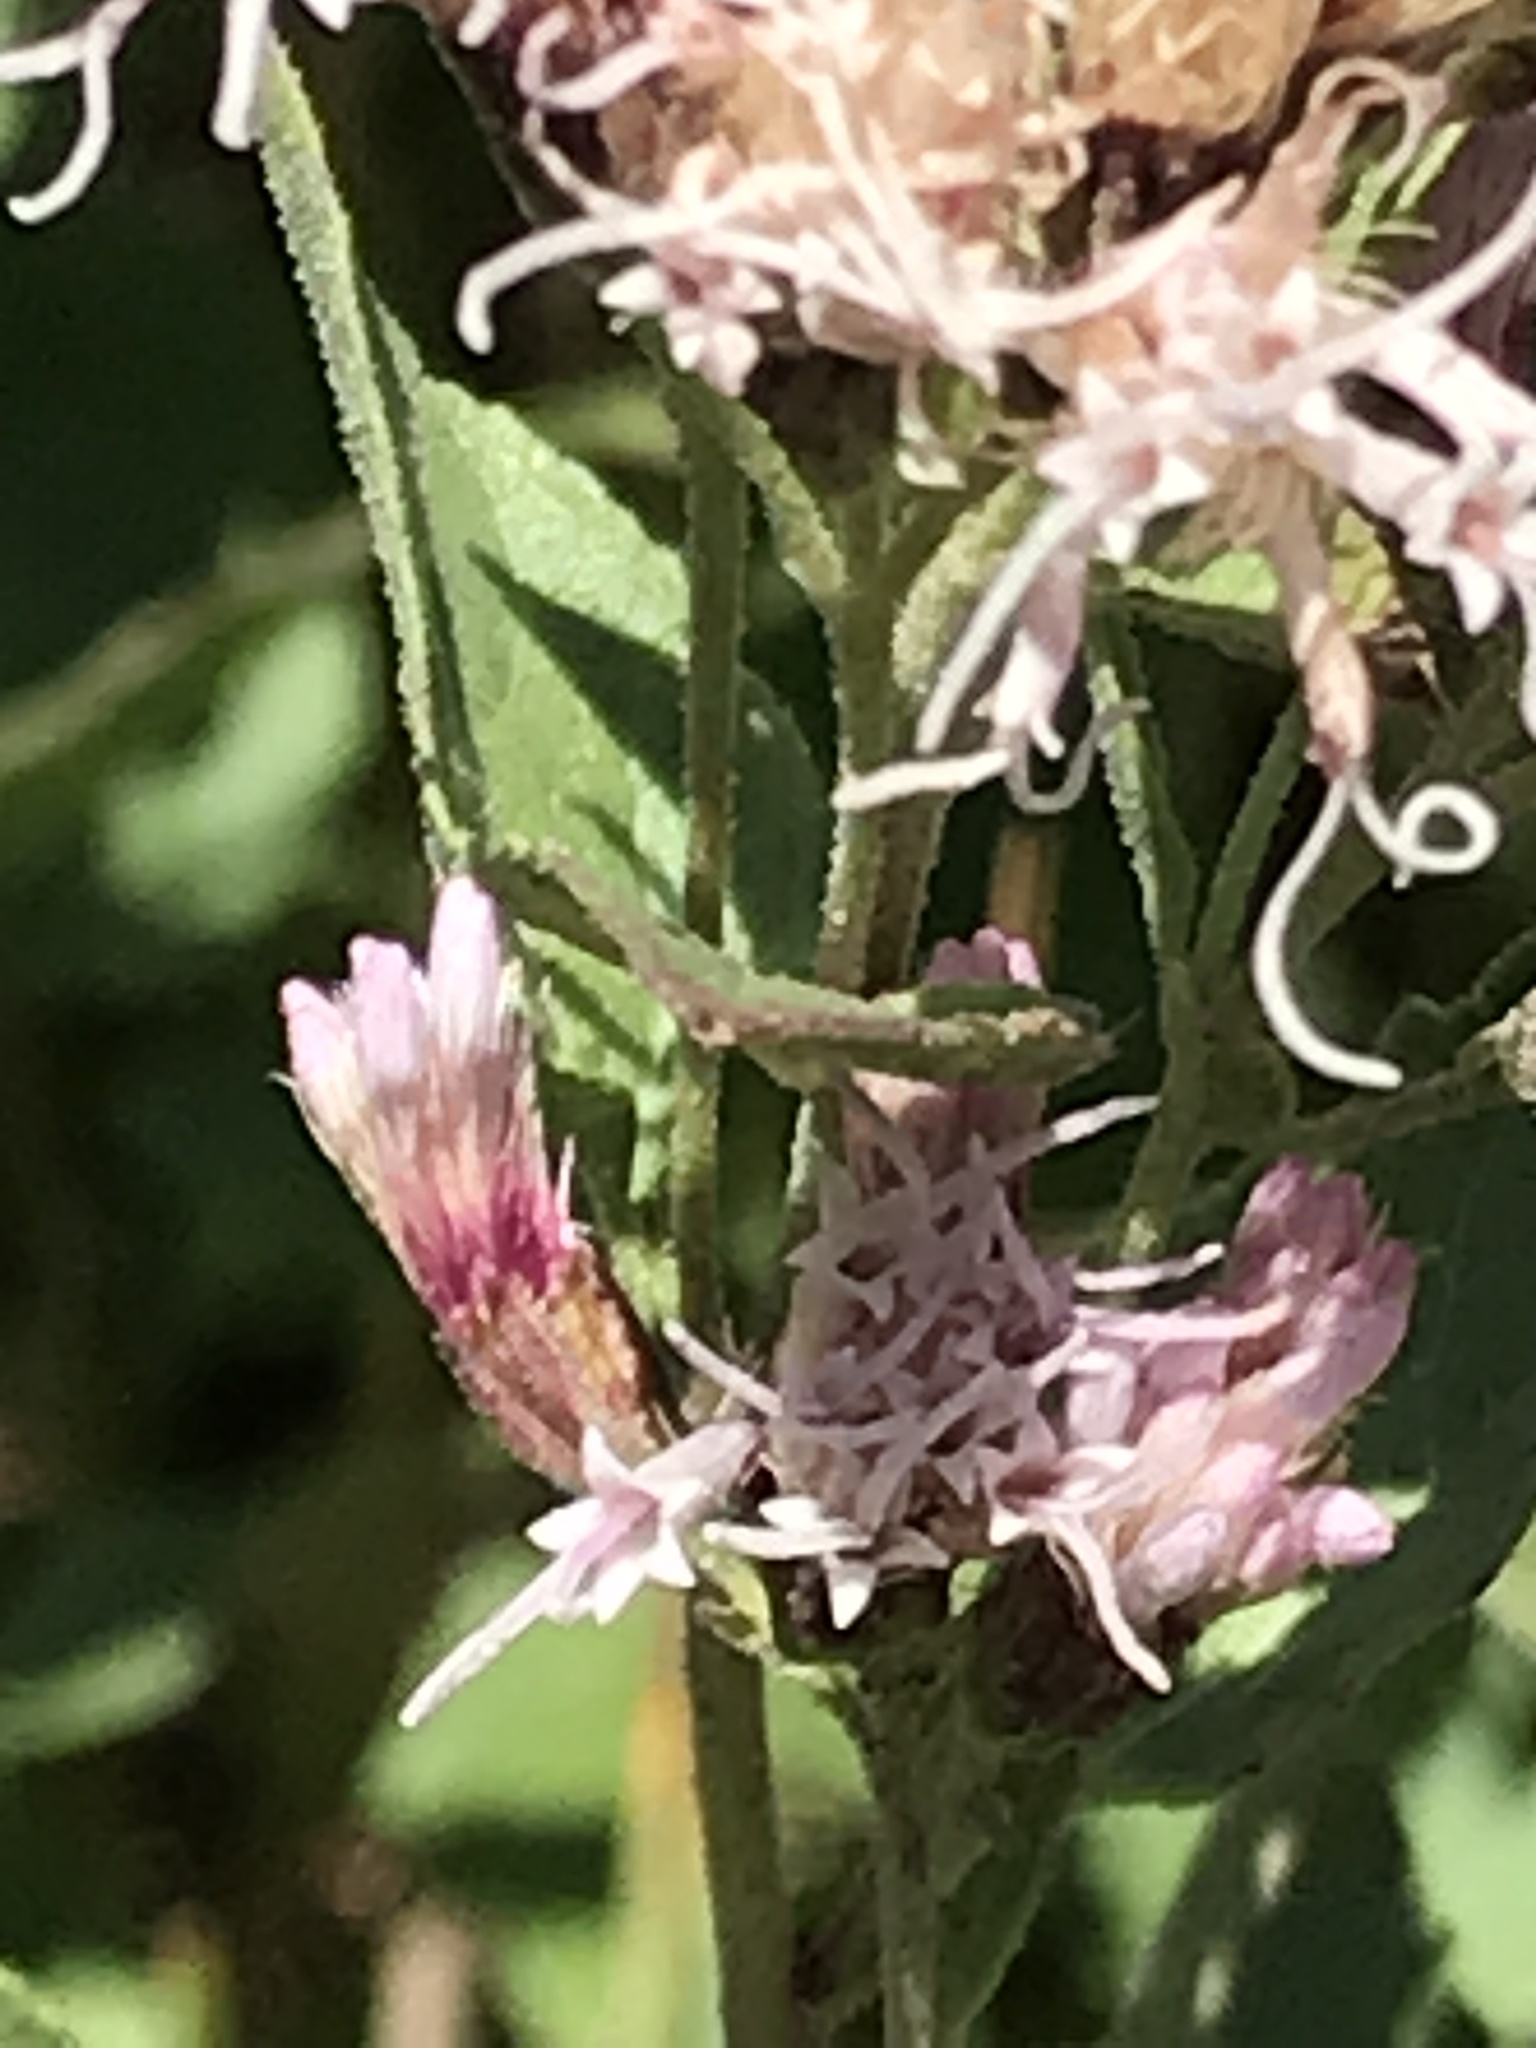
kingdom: Plantae
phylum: Tracheophyta
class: Magnoliopsida
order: Asterales
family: Asteraceae
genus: Ageratina
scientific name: Ageratina occidentalis
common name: Western snakeroot
